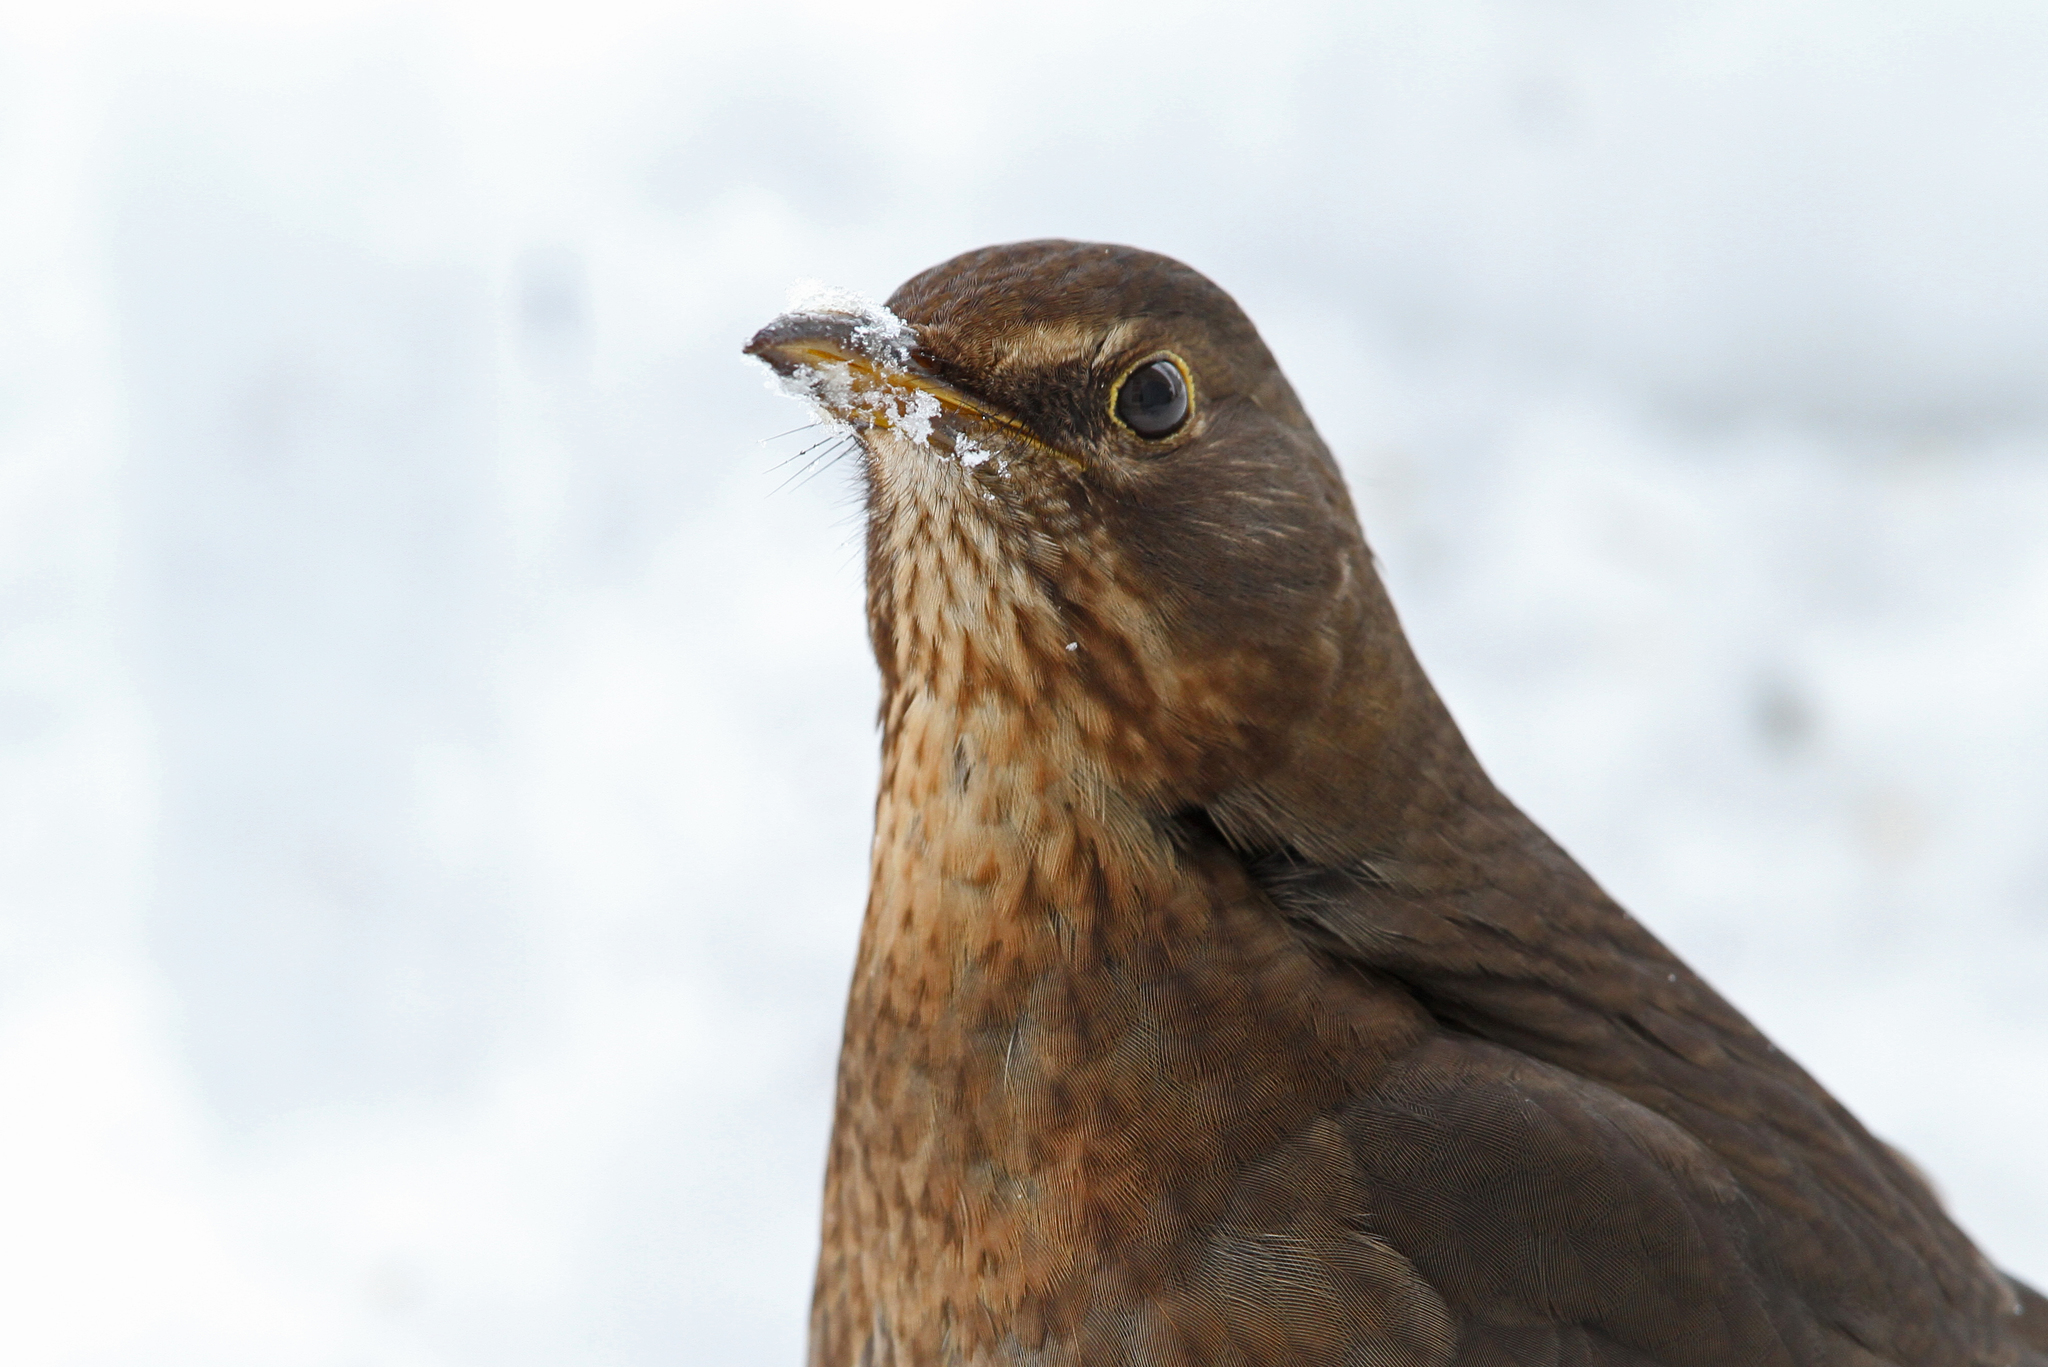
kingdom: Animalia
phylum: Chordata
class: Aves
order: Passeriformes
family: Turdidae
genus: Turdus
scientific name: Turdus merula
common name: Common blackbird
